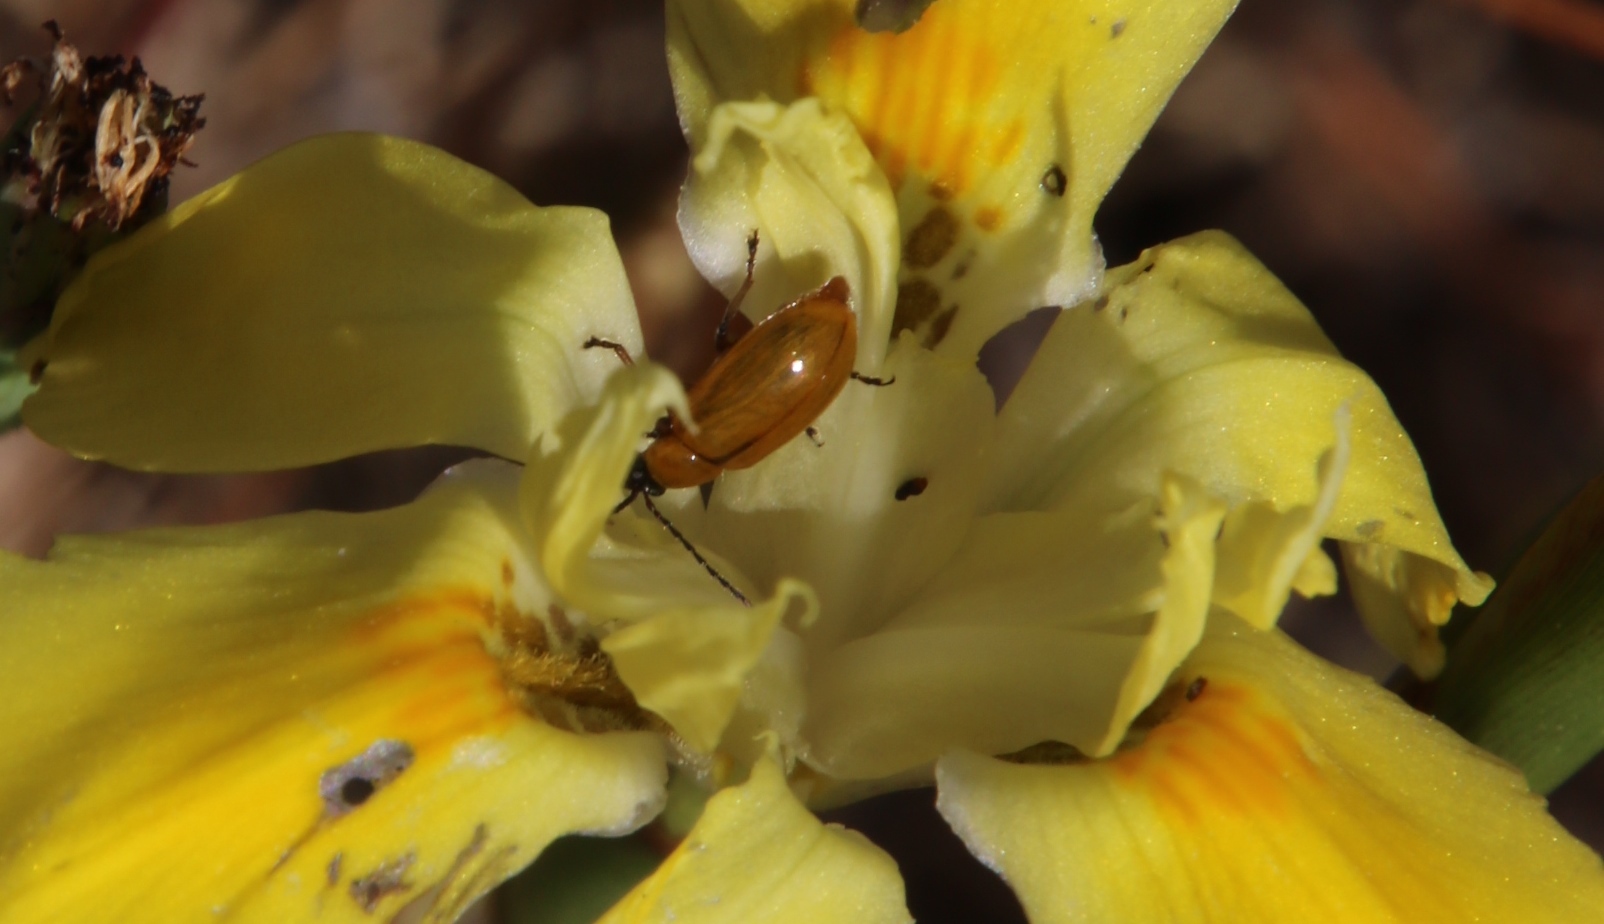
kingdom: Plantae
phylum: Tracheophyta
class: Liliopsida
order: Asparagales
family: Iridaceae
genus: Moraea
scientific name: Moraea fugax
